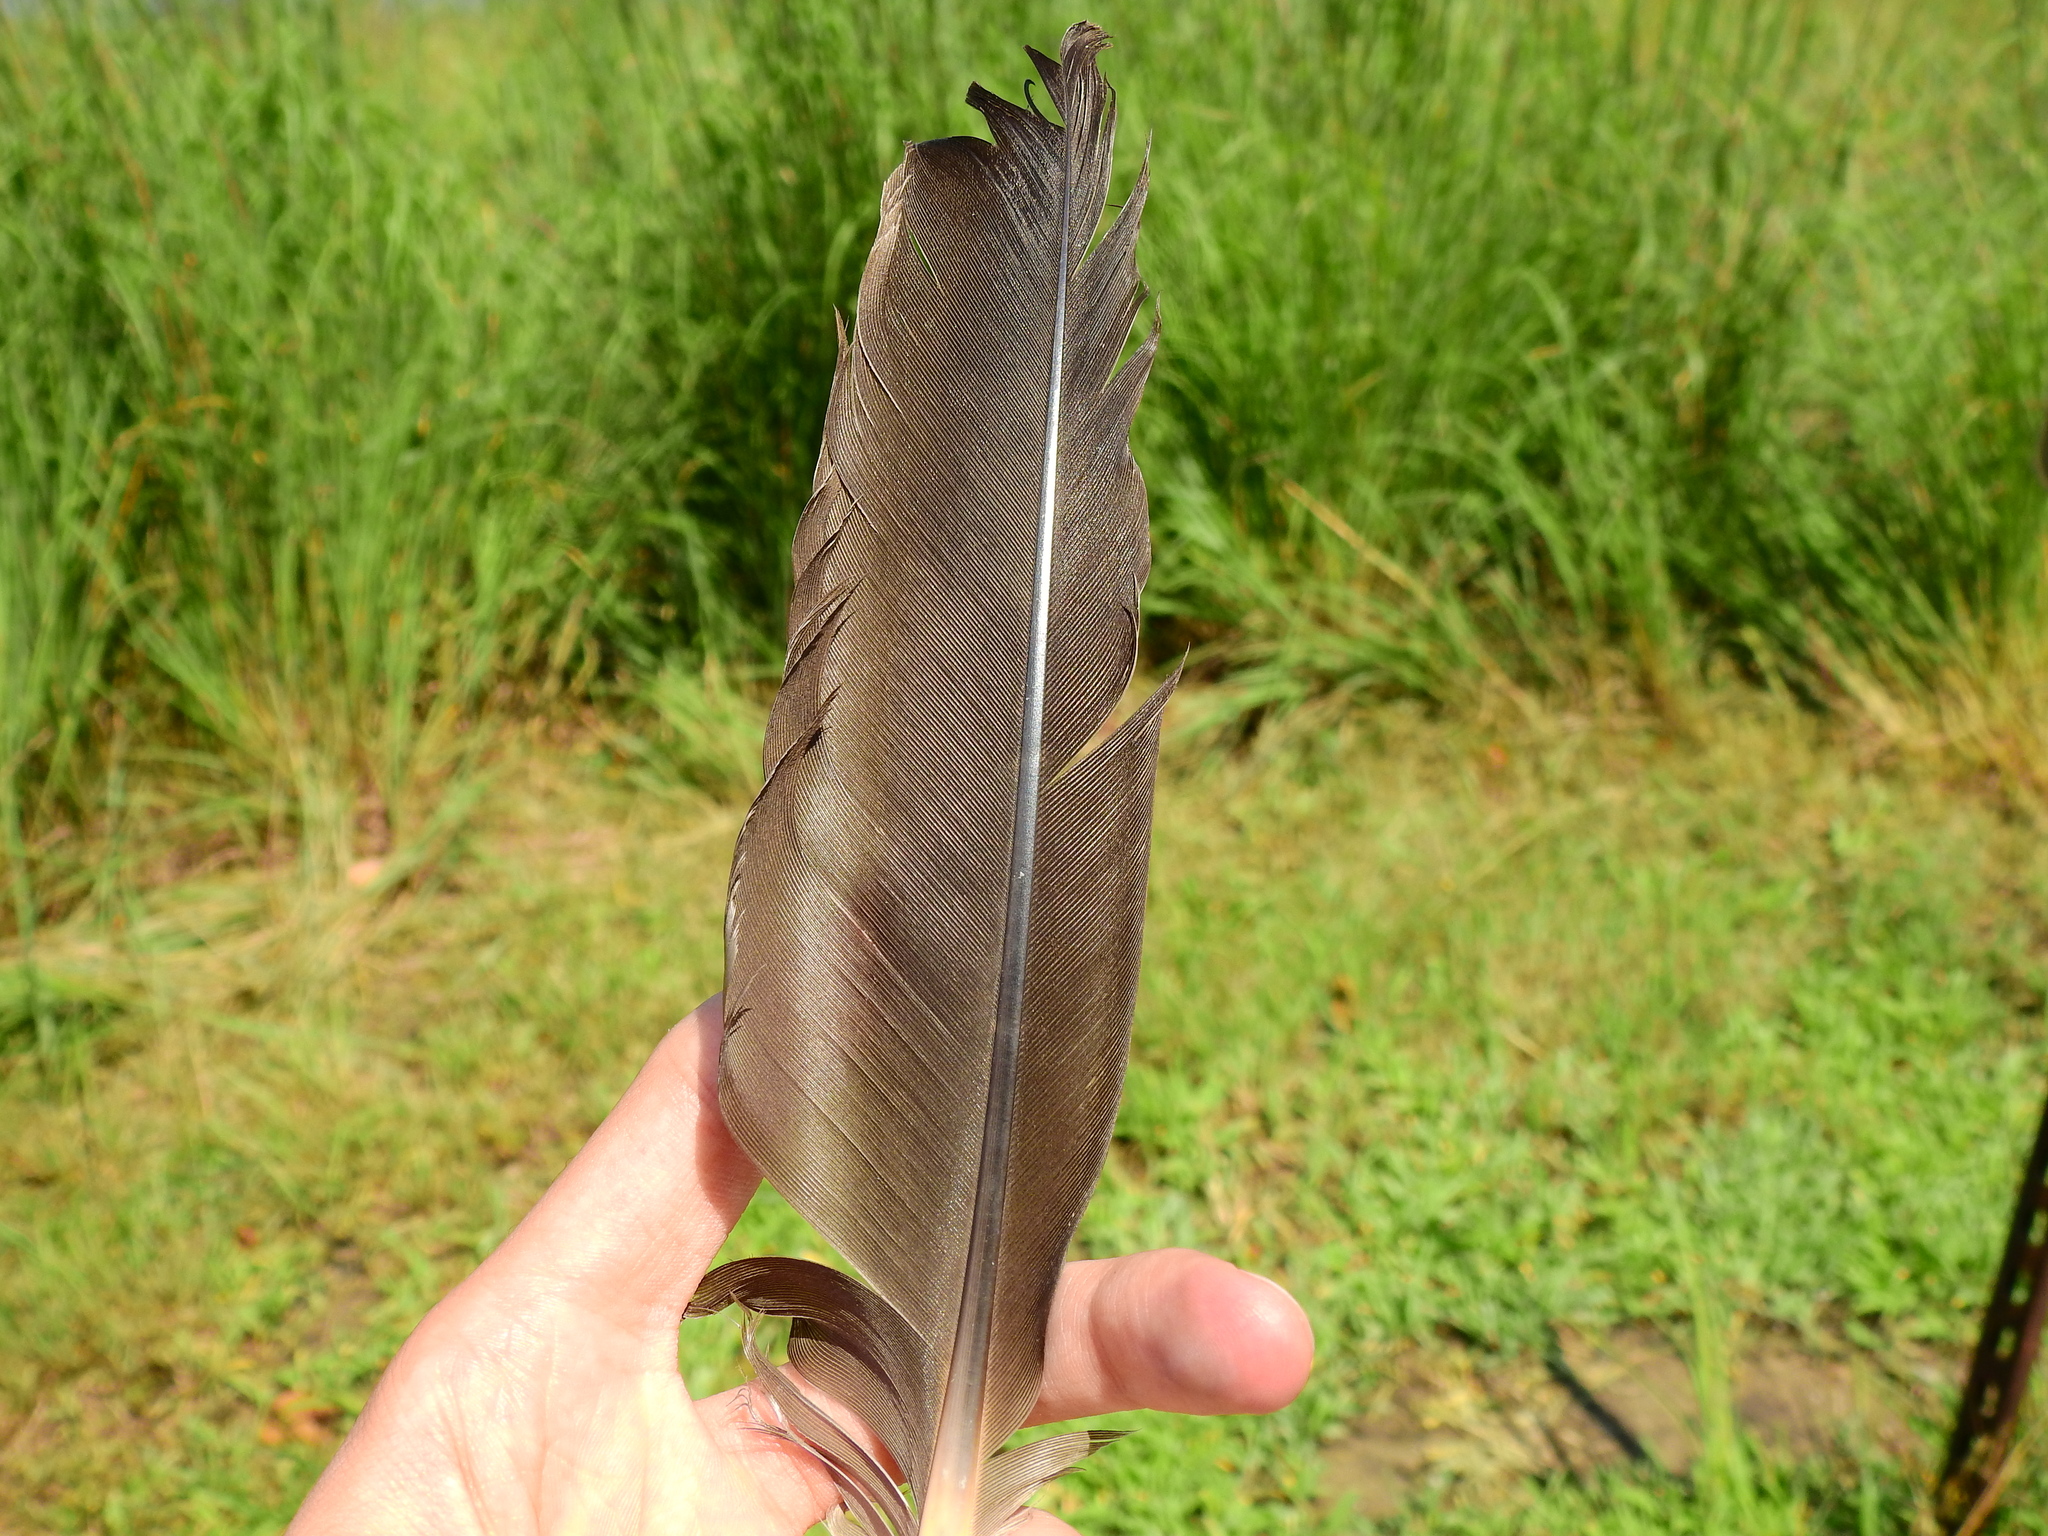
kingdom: Animalia
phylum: Chordata
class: Aves
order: Anseriformes
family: Anatidae
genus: Branta
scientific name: Branta canadensis
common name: Canada goose
